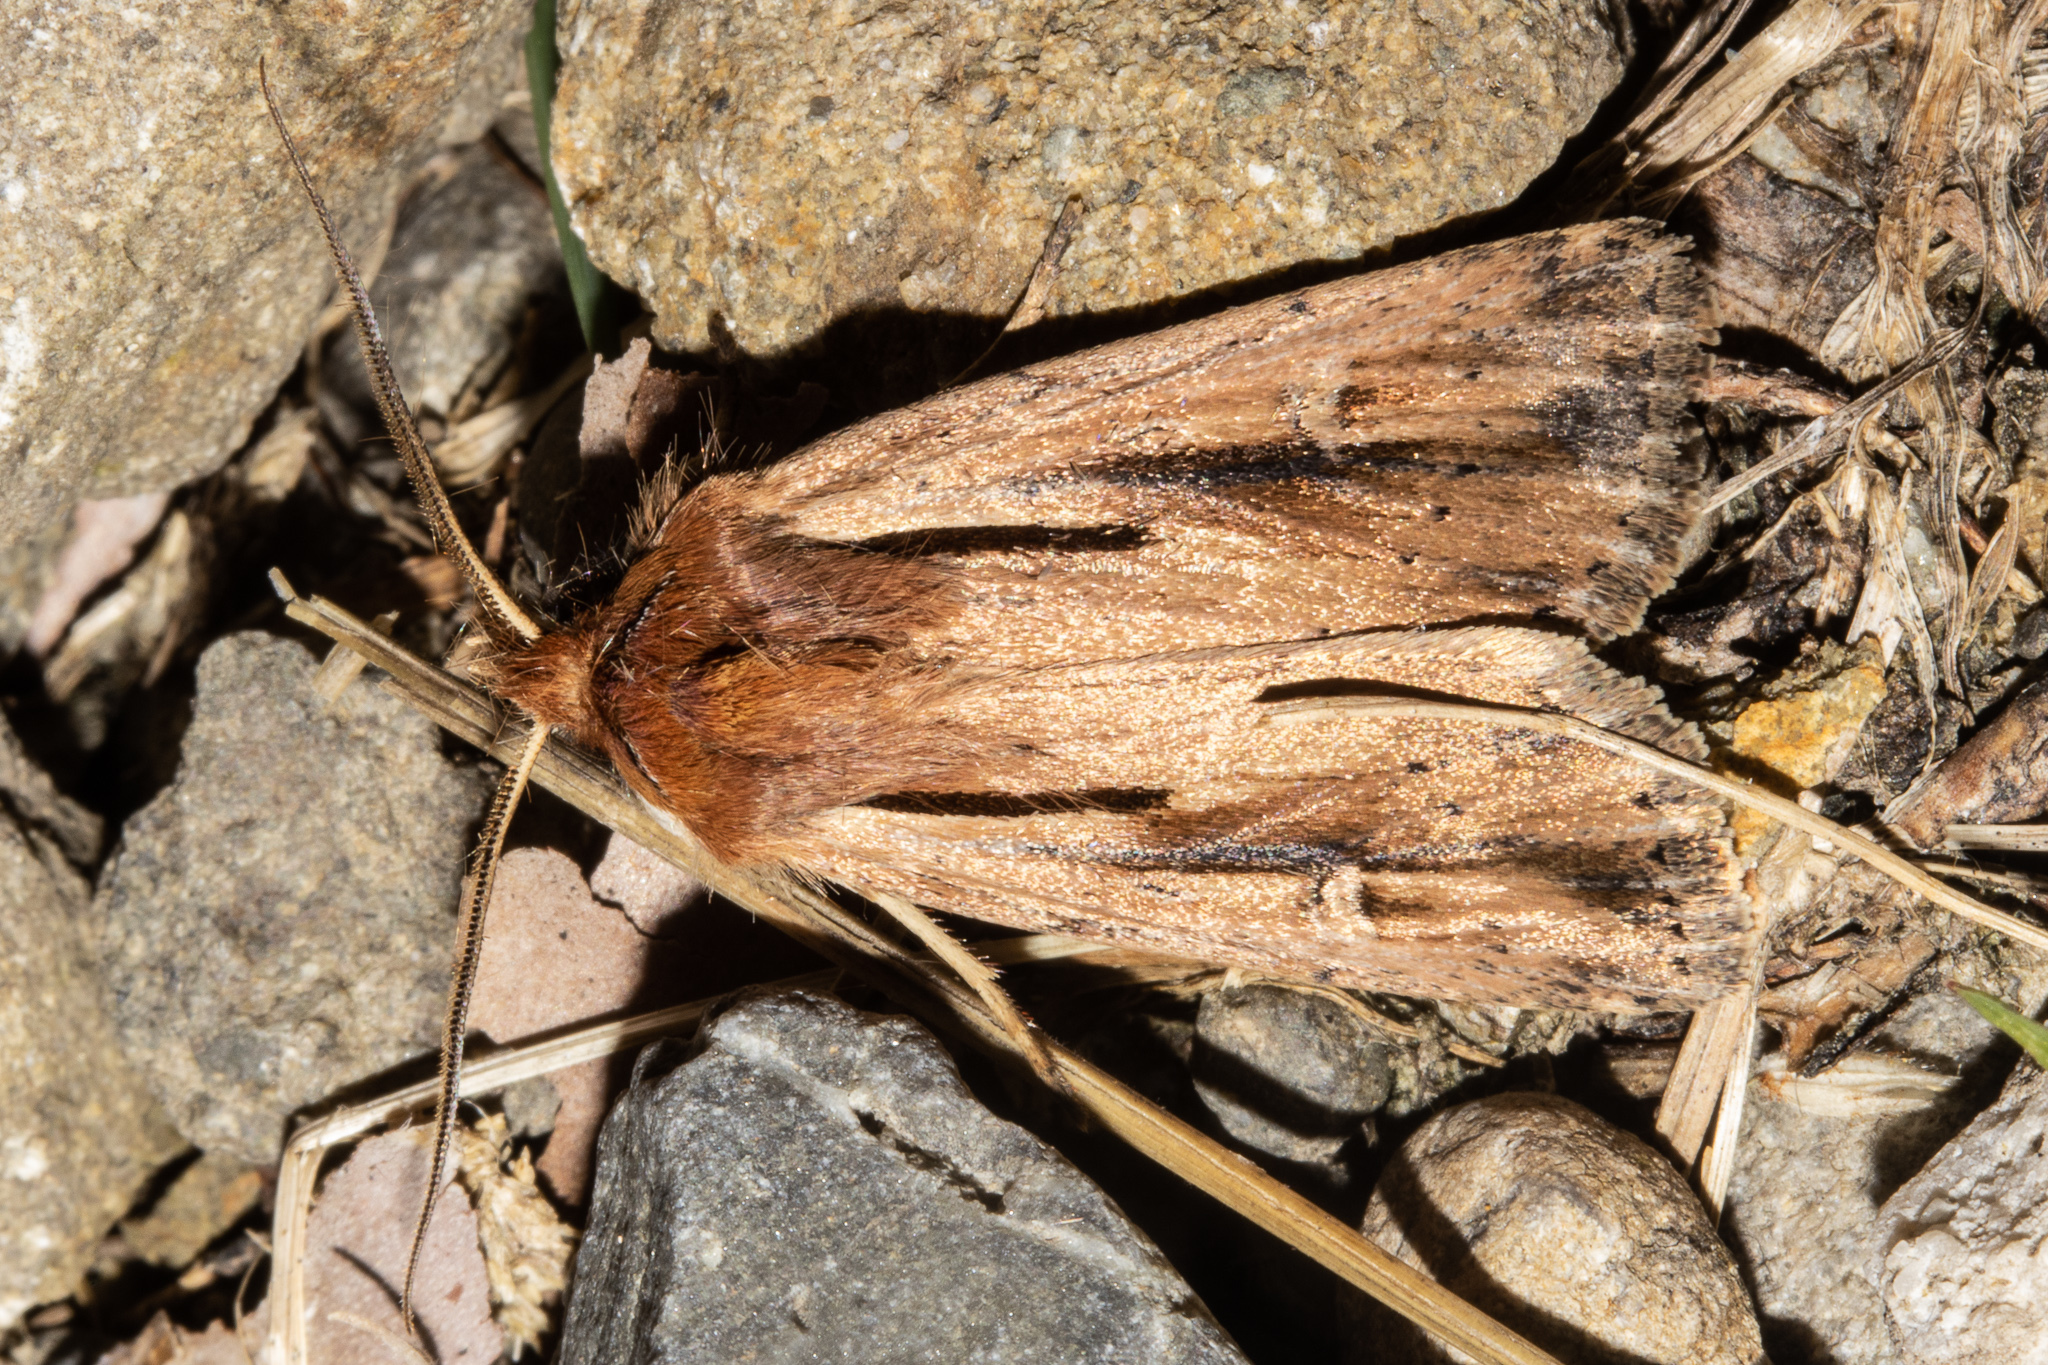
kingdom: Animalia
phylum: Arthropoda
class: Insecta
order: Lepidoptera
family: Noctuidae
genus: Ichneutica
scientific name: Ichneutica propria
